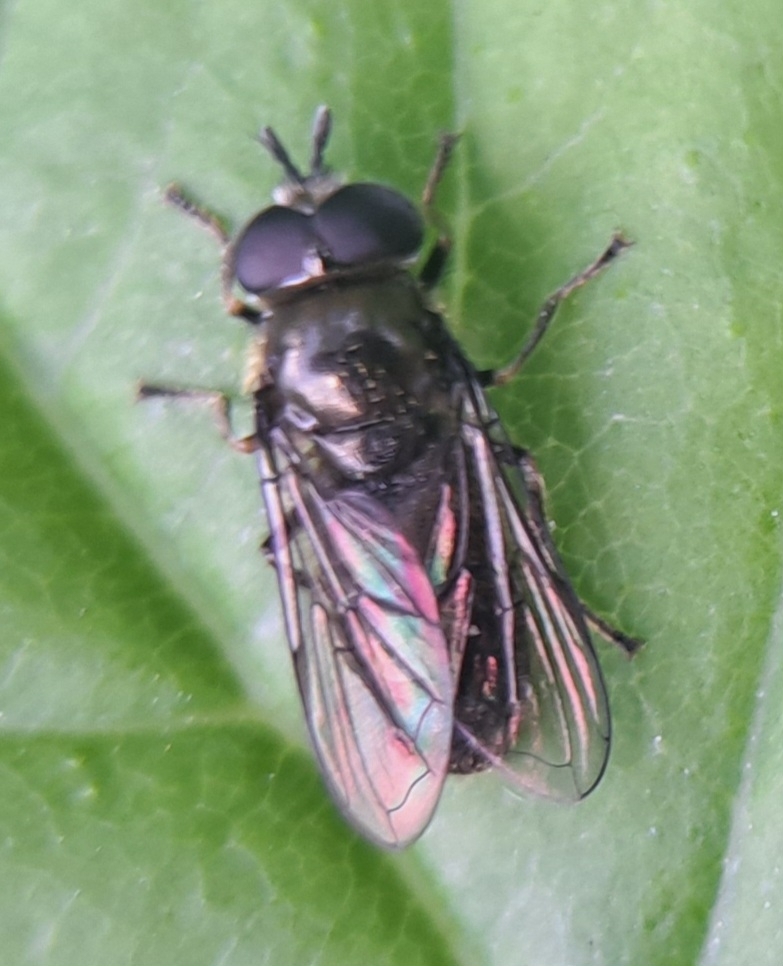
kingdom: Animalia
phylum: Arthropoda
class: Insecta
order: Diptera
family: Syrphidae
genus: Pipizella
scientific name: Pipizella
